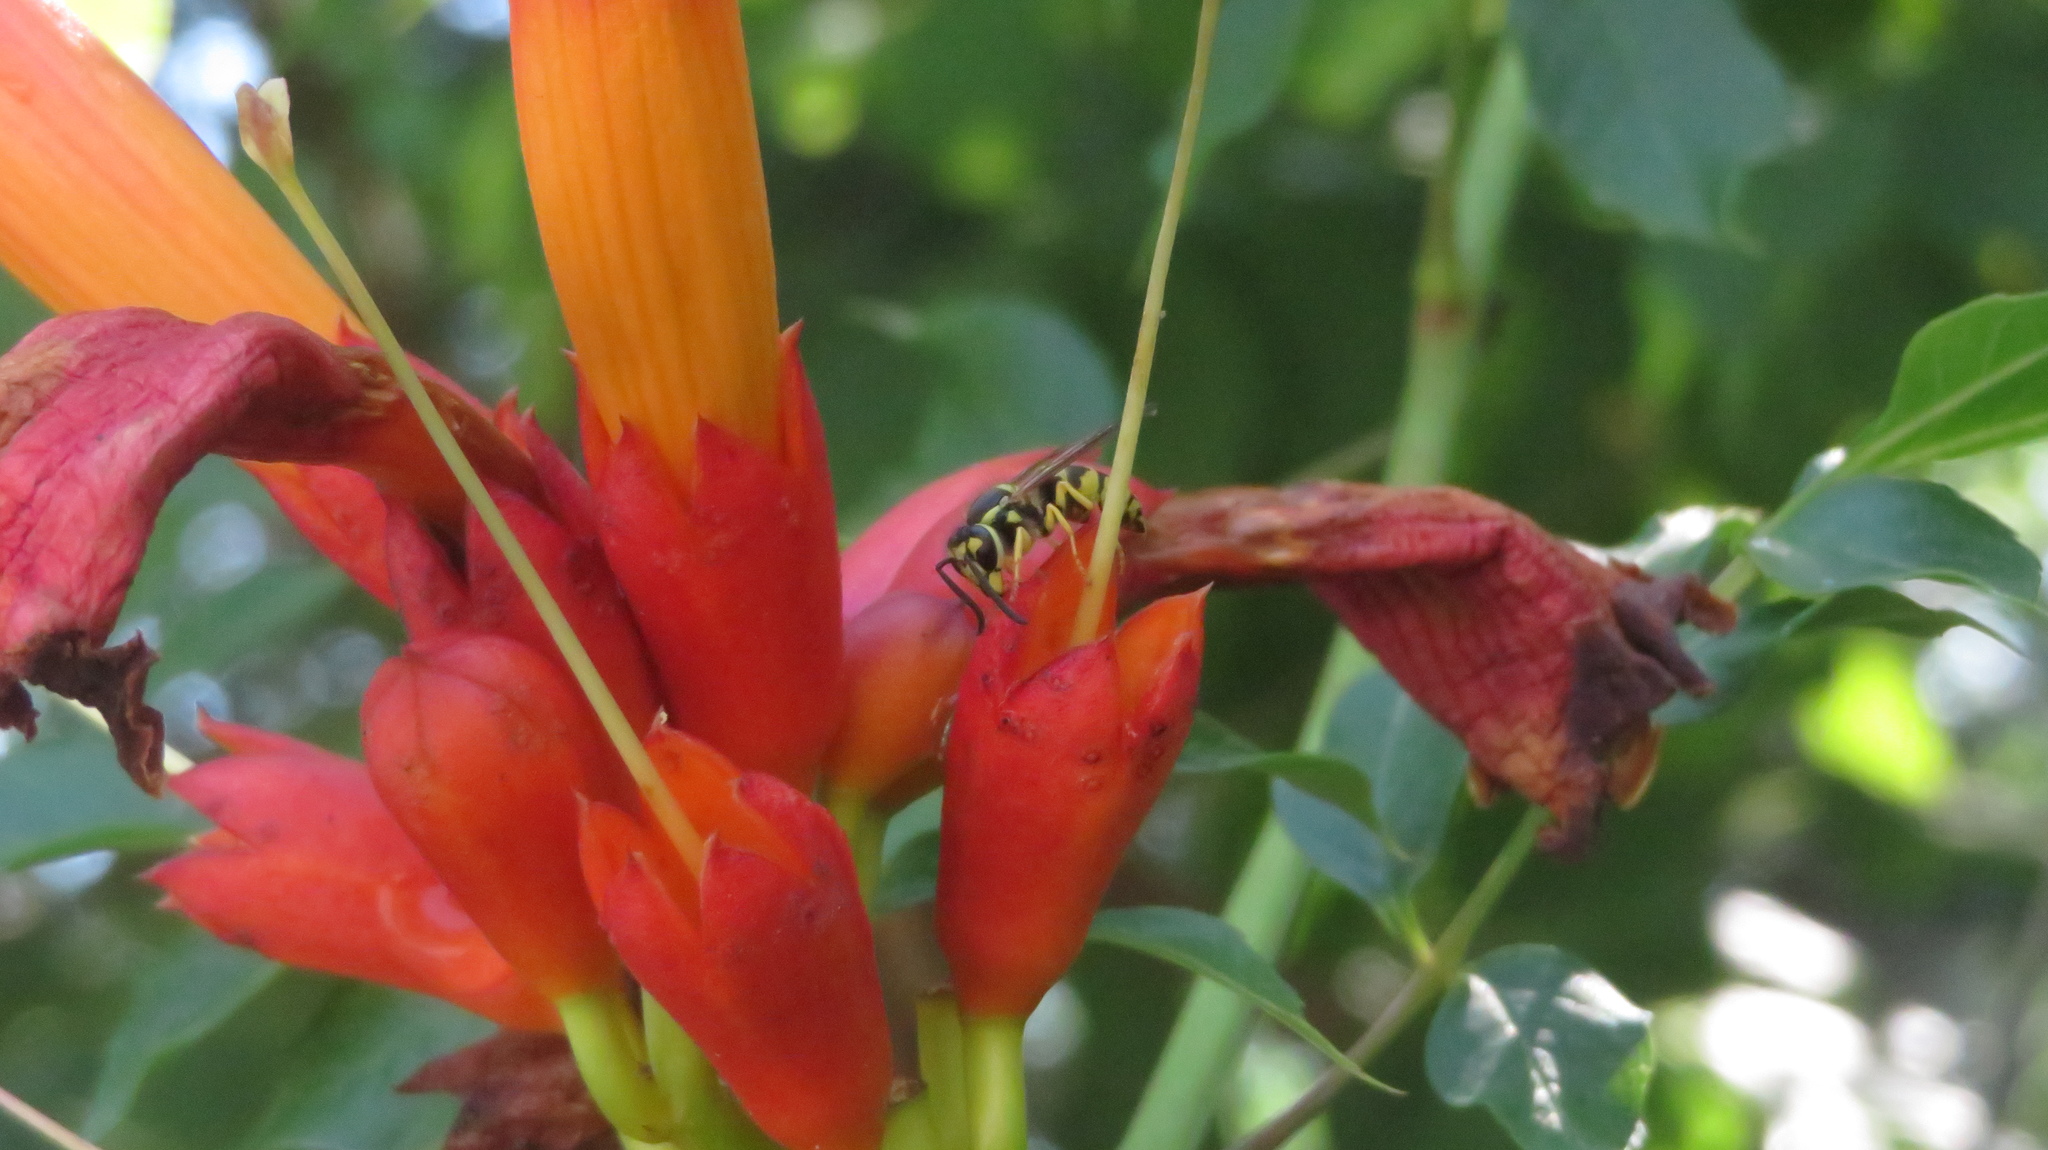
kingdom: Animalia
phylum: Arthropoda
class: Insecta
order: Hymenoptera
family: Vespidae
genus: Vespula
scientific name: Vespula maculifrons
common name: Eastern yellowjacket
